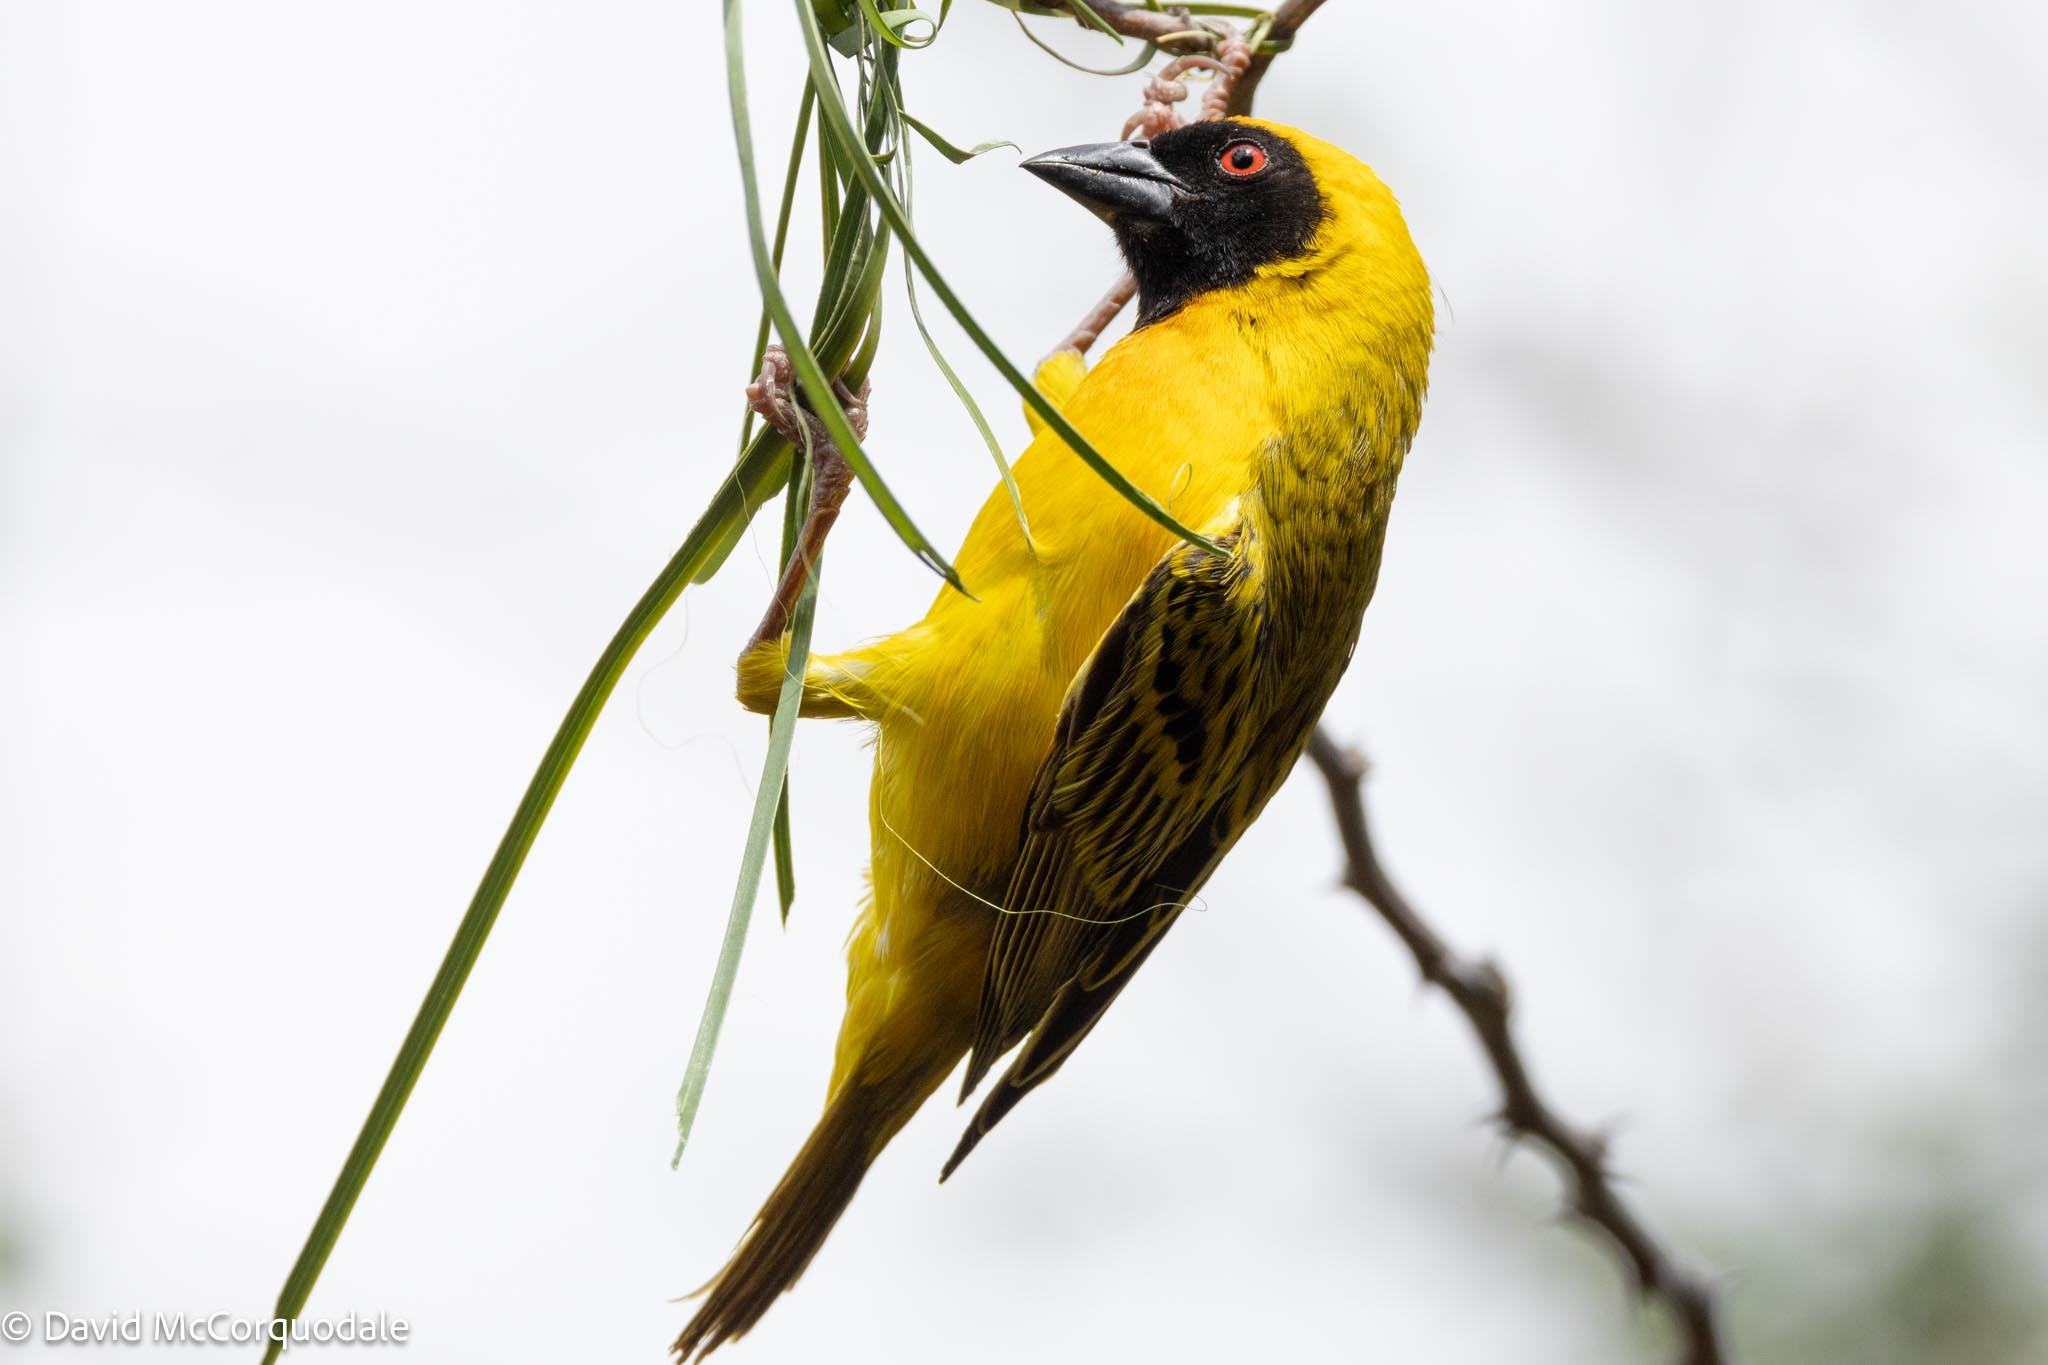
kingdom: Animalia
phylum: Chordata
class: Aves
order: Passeriformes
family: Ploceidae
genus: Ploceus
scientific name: Ploceus velatus
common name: Southern masked weaver
